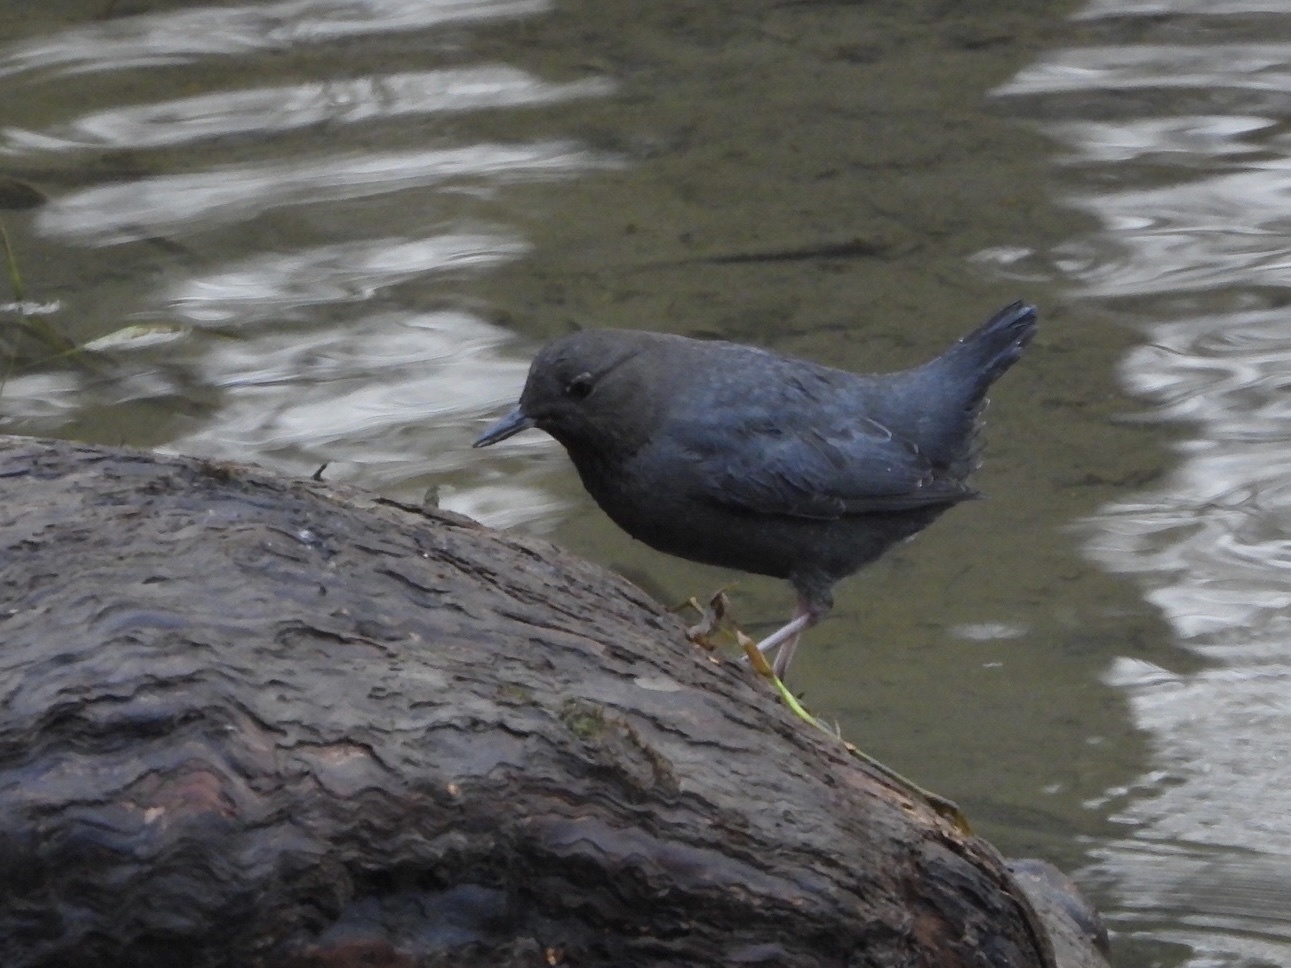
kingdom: Animalia
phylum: Chordata
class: Aves
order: Passeriformes
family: Cinclidae
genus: Cinclus
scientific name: Cinclus mexicanus
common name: American dipper
